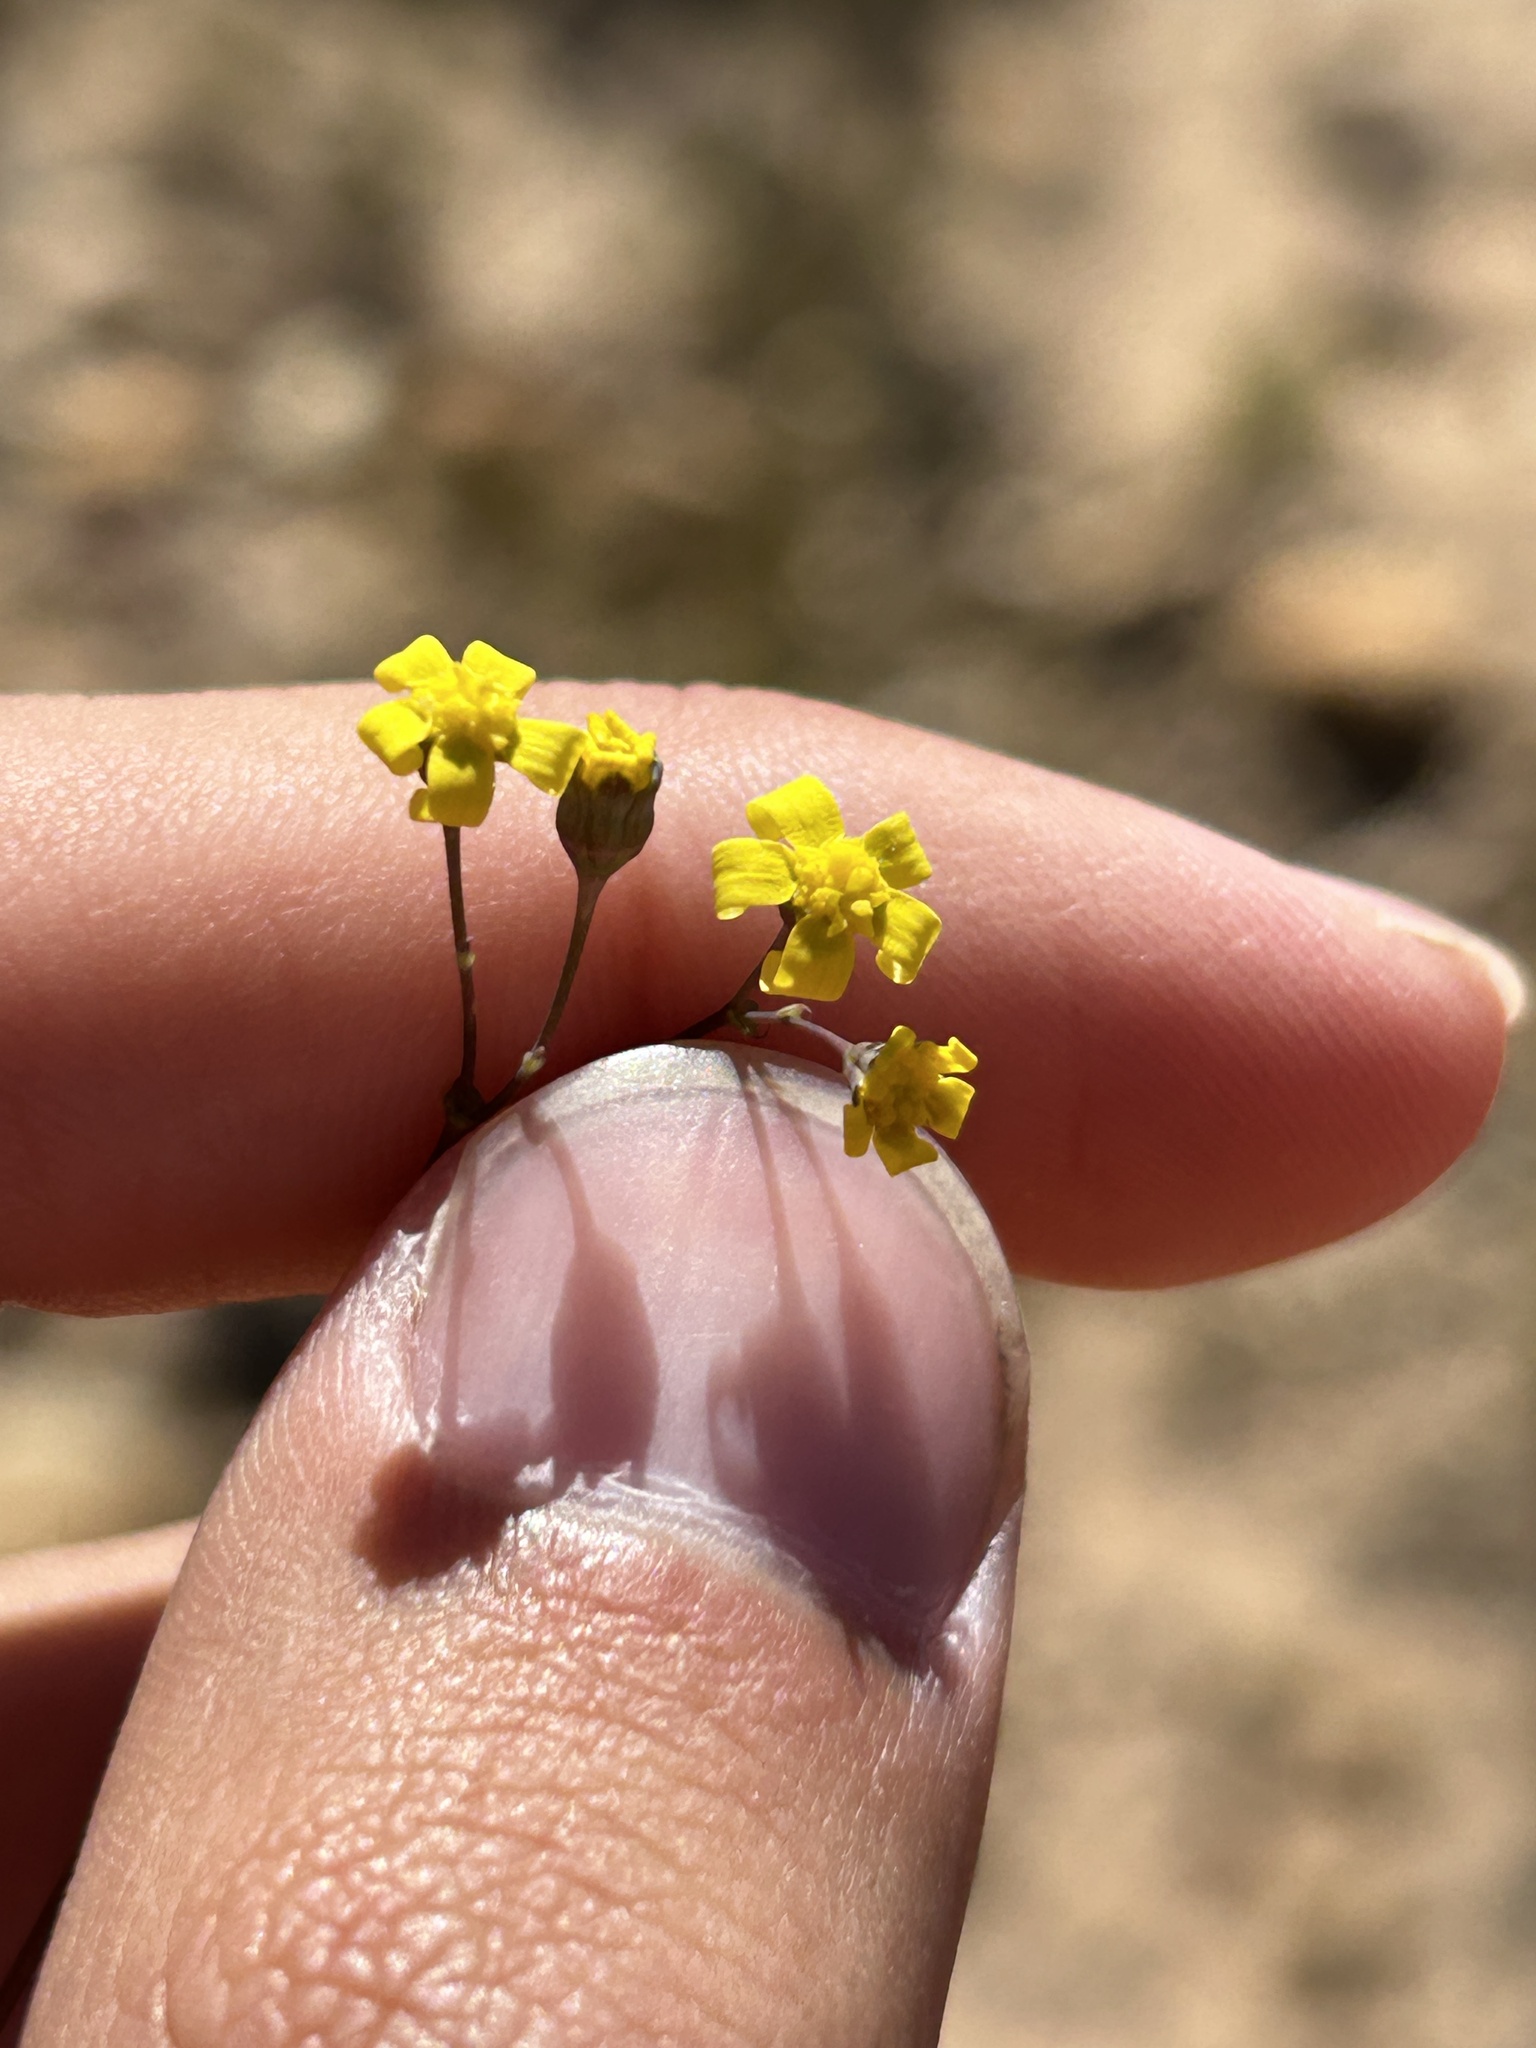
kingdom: Plantae
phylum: Tracheophyta
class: Magnoliopsida
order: Asterales
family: Asteraceae
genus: Gymnodiscus
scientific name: Gymnodiscus capillaris
